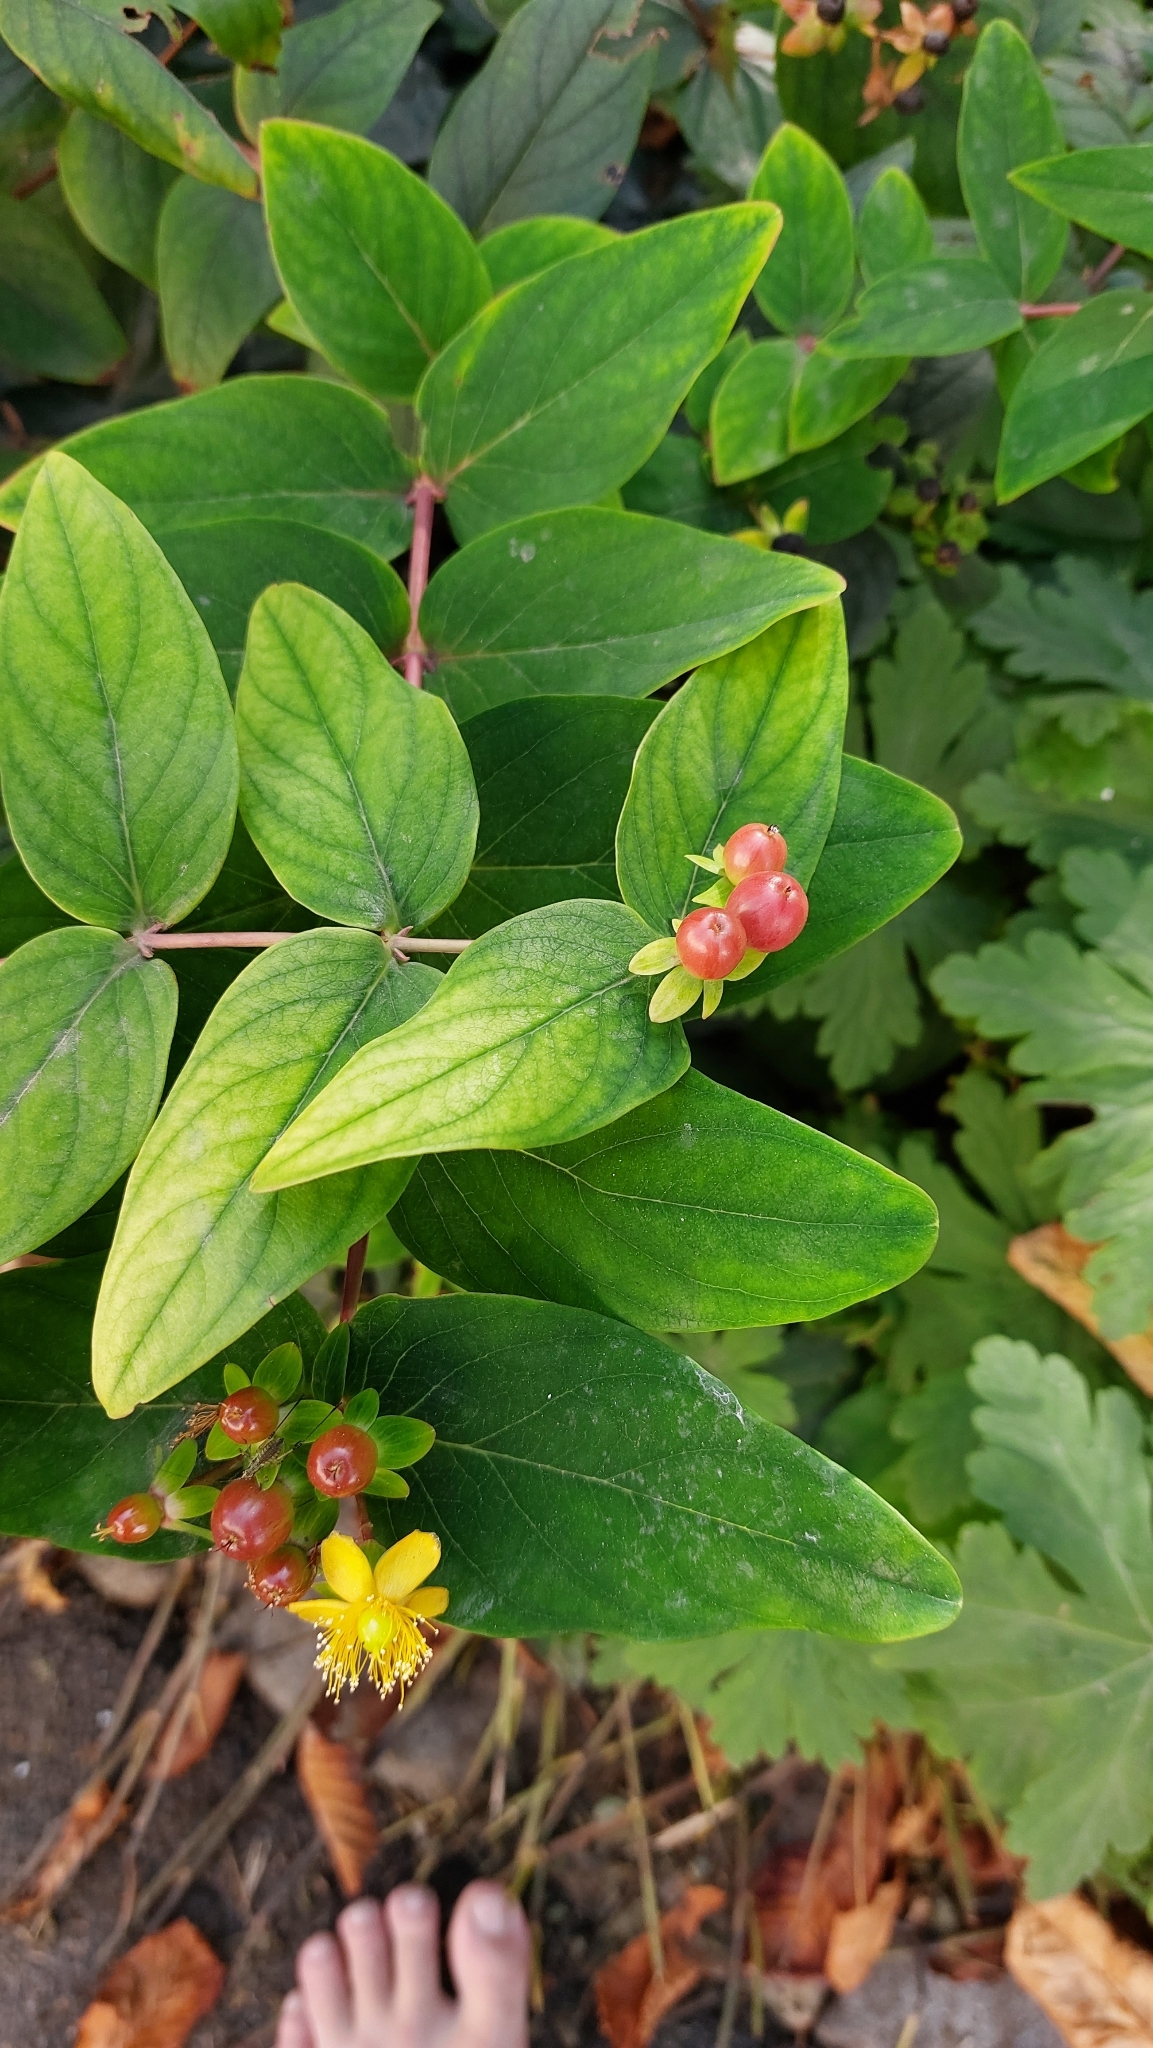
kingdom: Plantae
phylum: Tracheophyta
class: Magnoliopsida
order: Malpighiales
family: Hypericaceae
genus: Hypericum
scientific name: Hypericum androsaemum
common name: Sweet-amber
